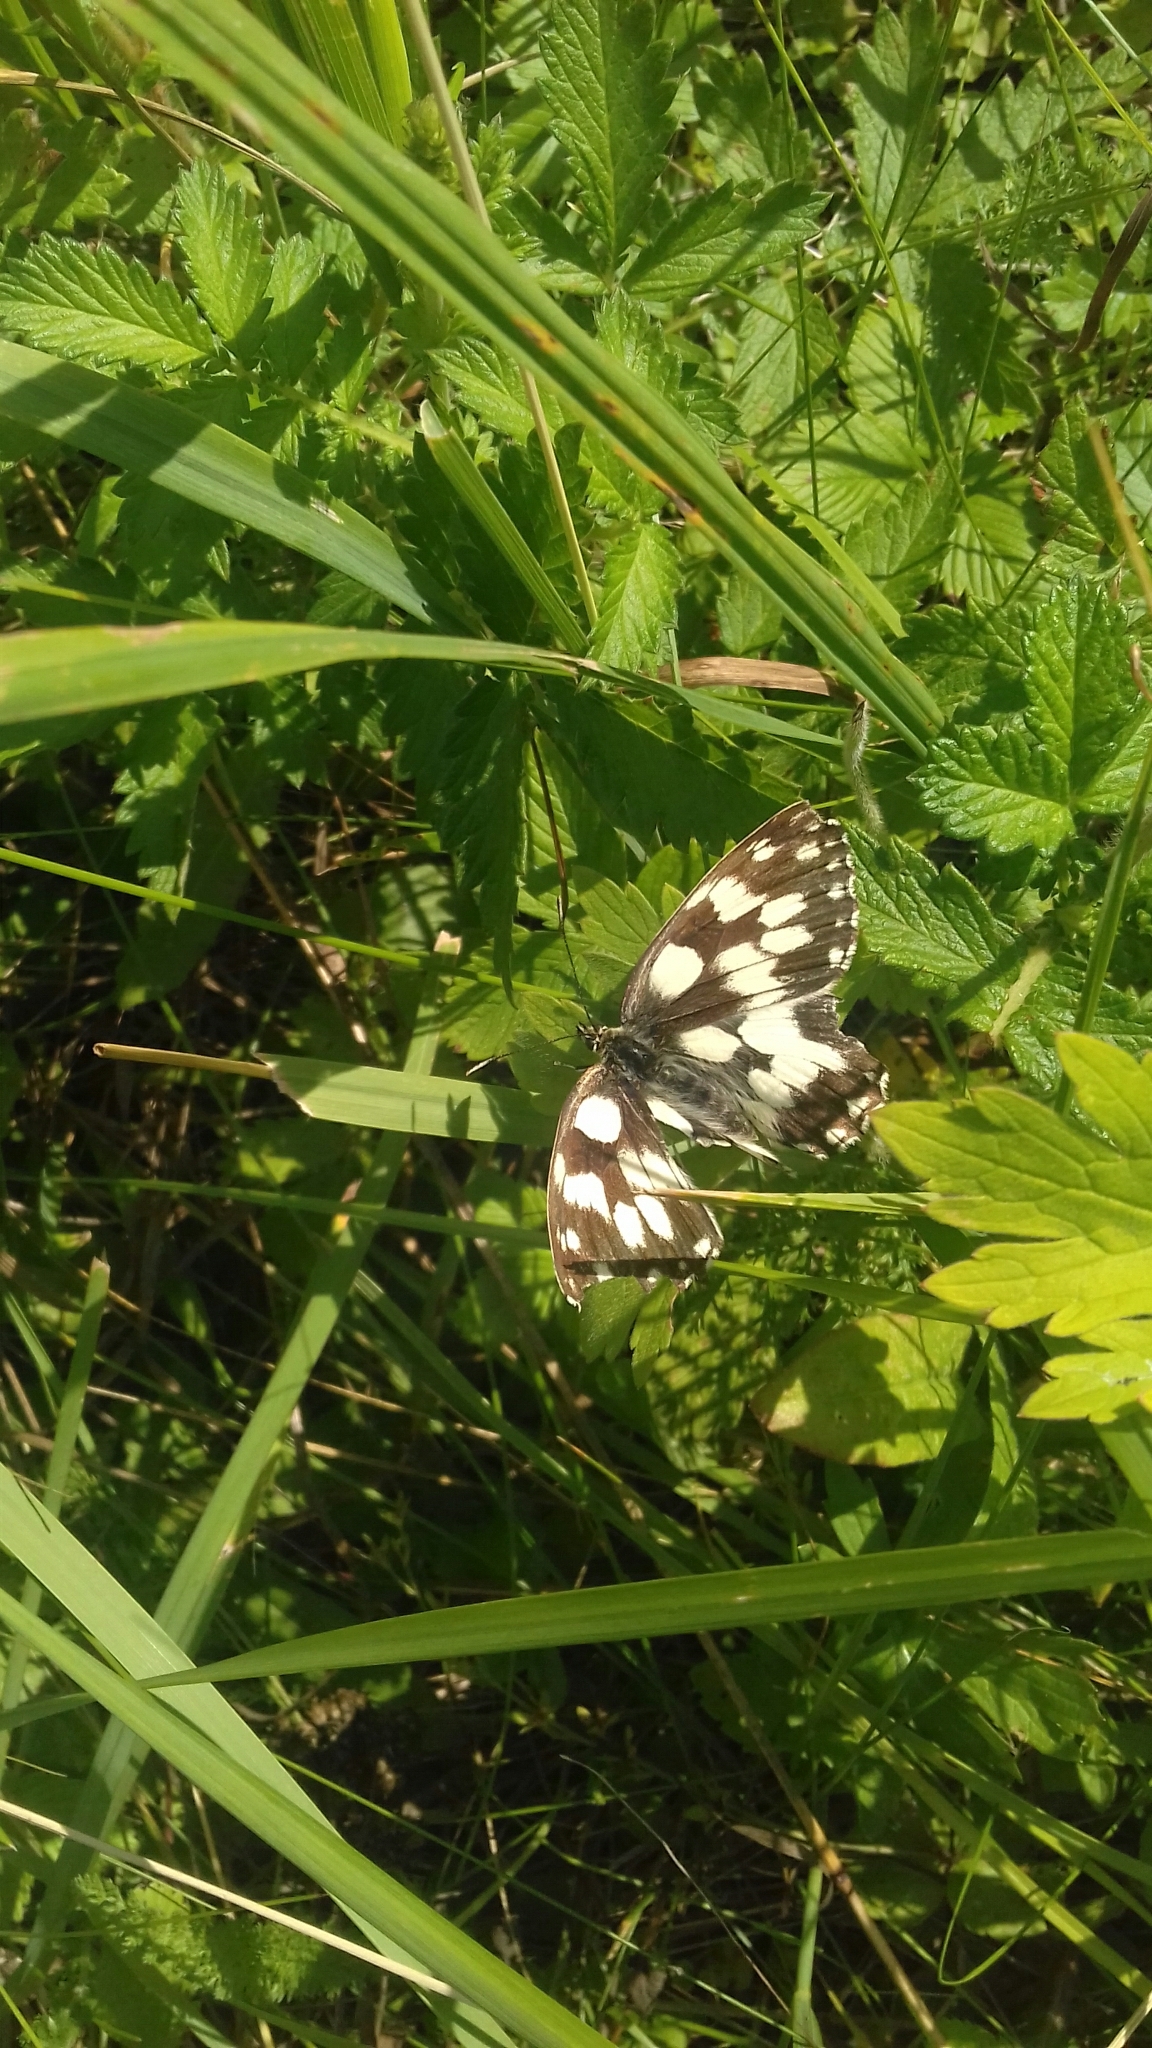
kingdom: Animalia
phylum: Arthropoda
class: Insecta
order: Lepidoptera
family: Nymphalidae
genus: Melanargia
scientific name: Melanargia galathea
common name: Marbled white
